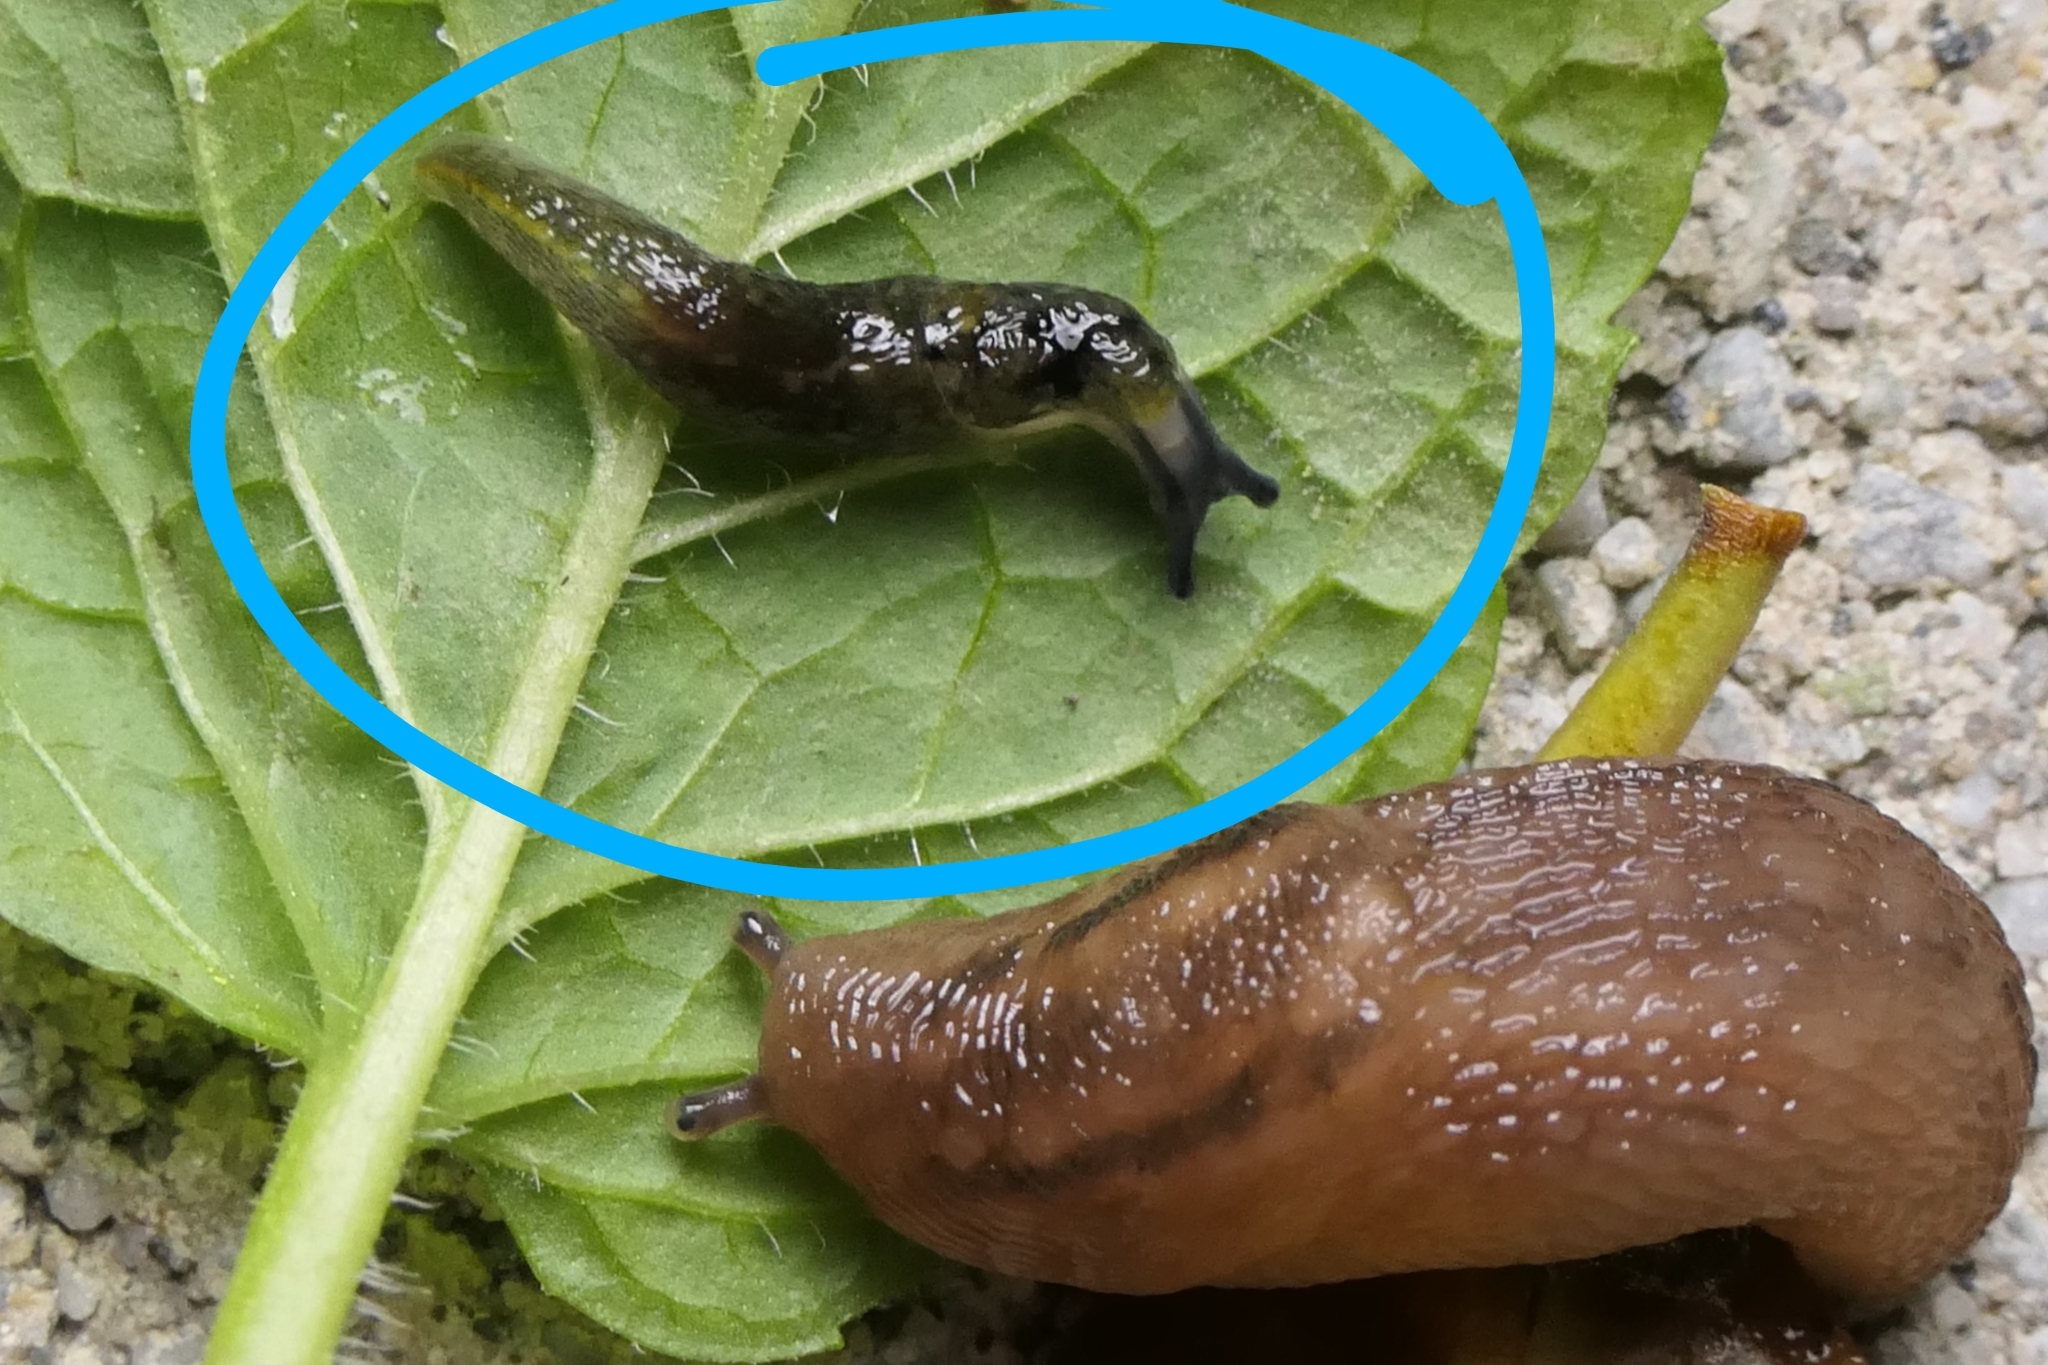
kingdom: Animalia
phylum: Mollusca
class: Gastropoda
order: Stylommatophora
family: Limacidae
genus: Limacus
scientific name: Limacus flavus
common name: Yellow gardenslug
